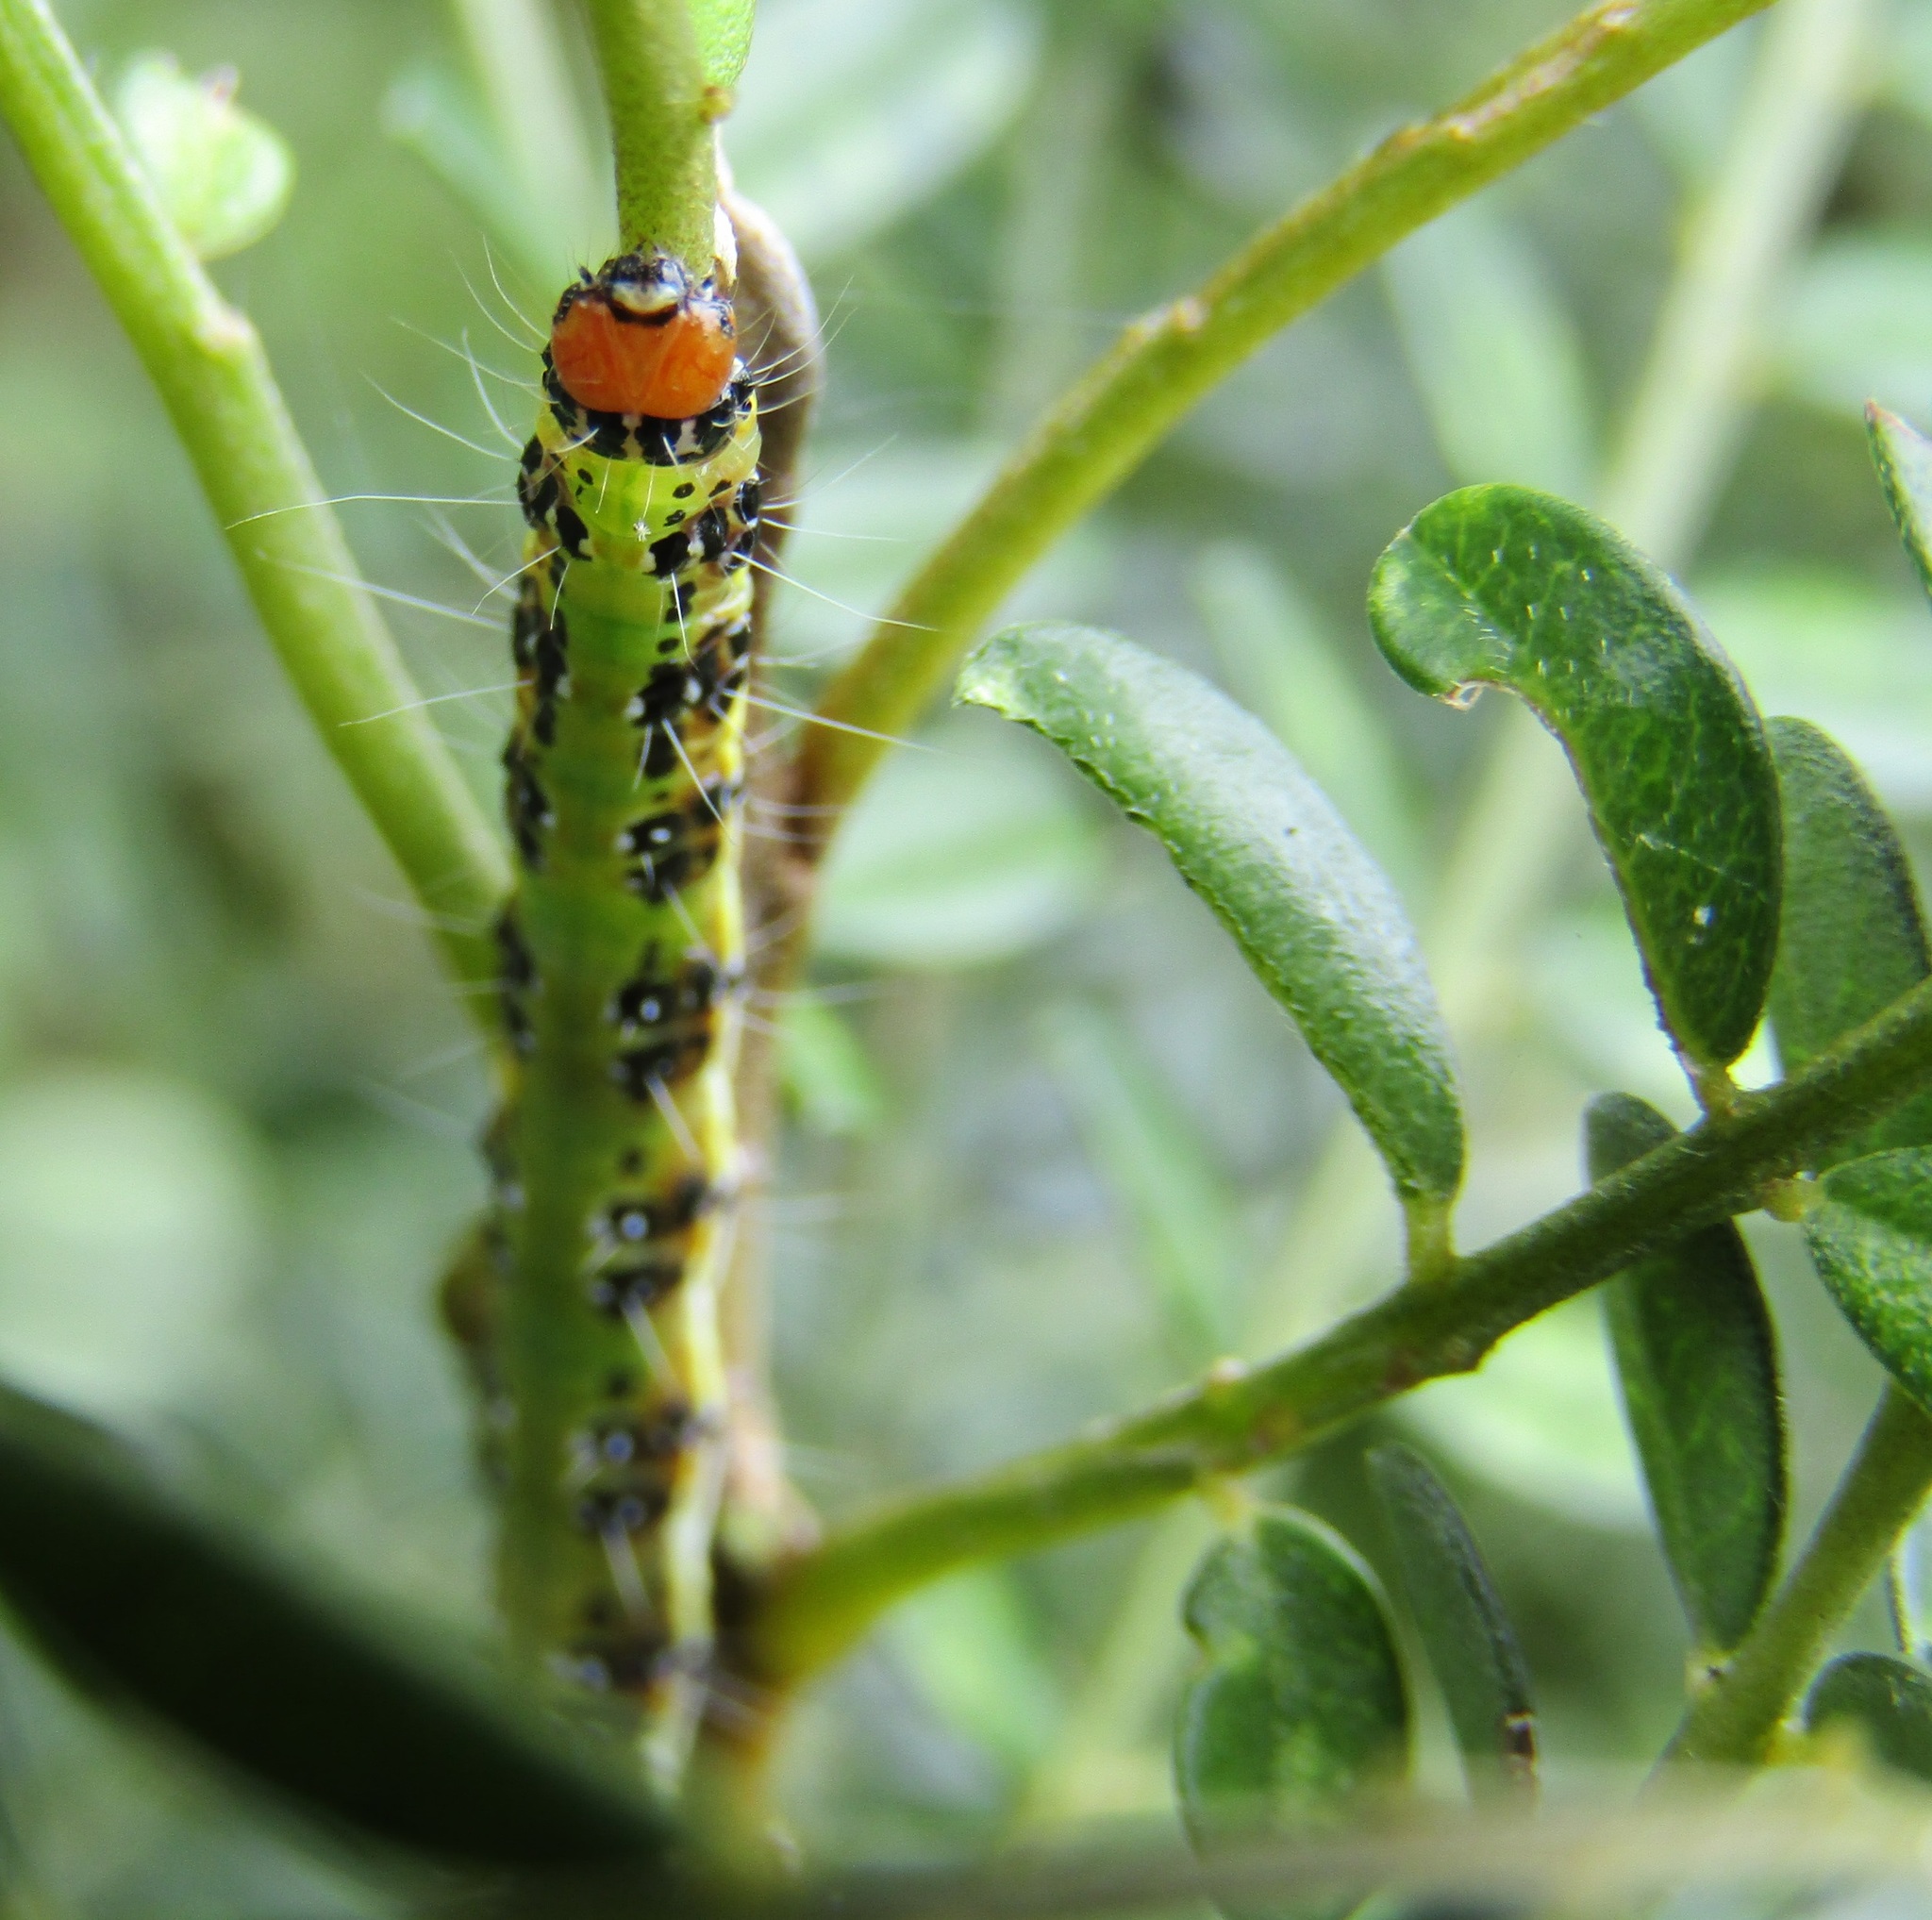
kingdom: Animalia
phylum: Arthropoda
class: Insecta
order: Lepidoptera
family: Crambidae
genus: Uresiphita
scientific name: Uresiphita
